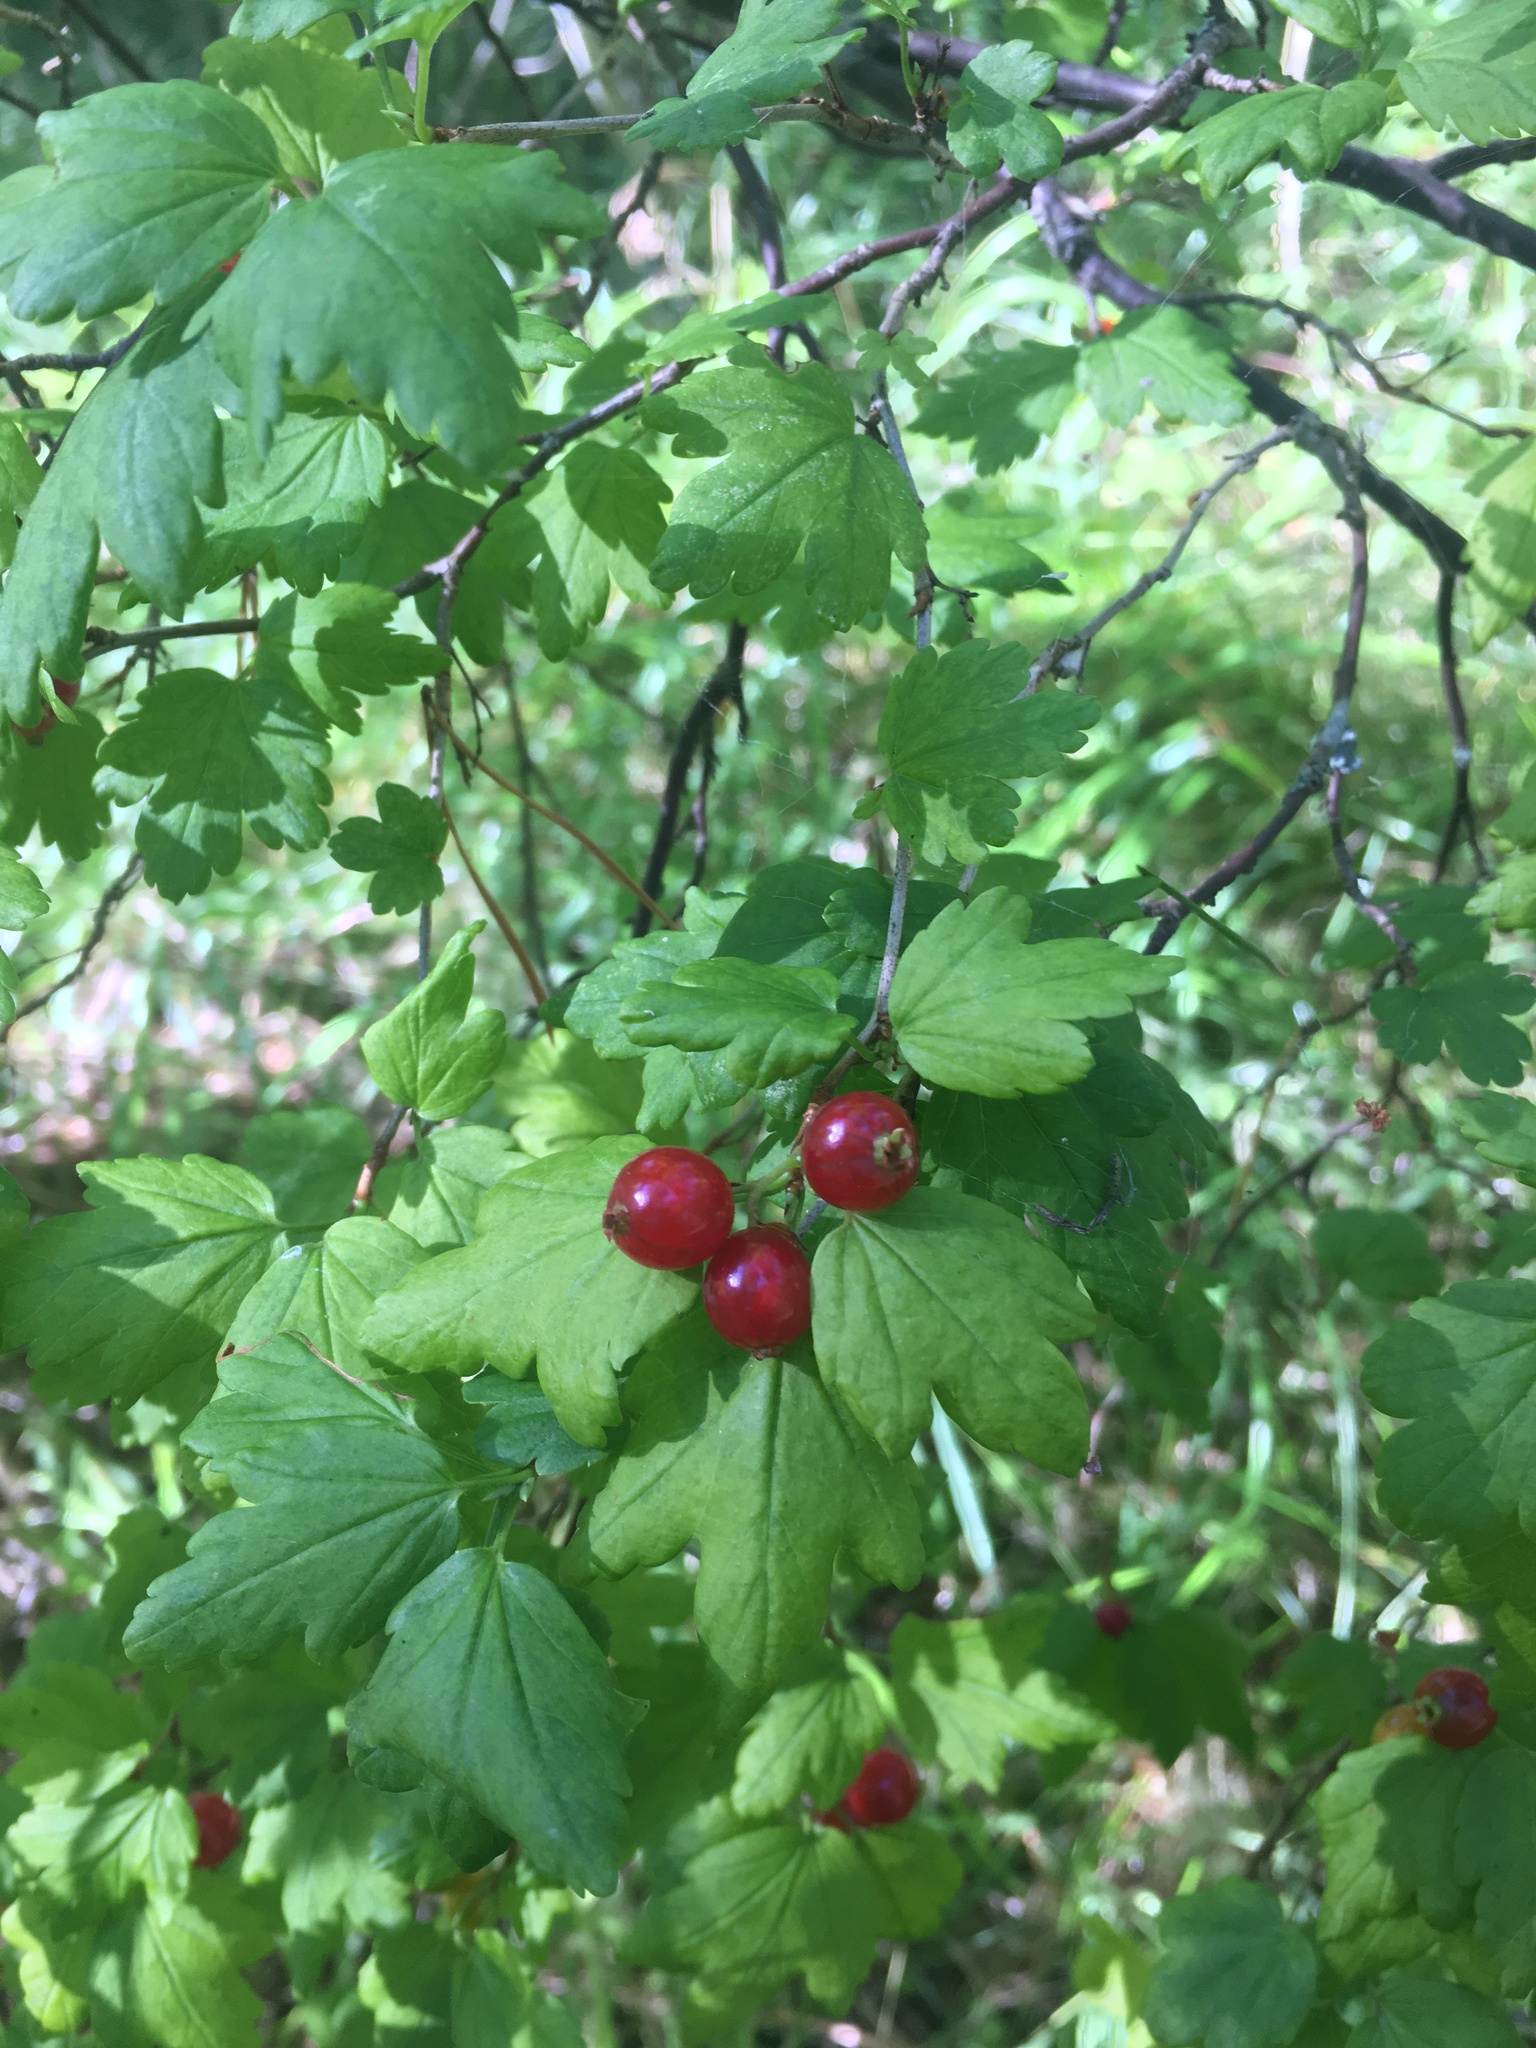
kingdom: Plantae
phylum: Tracheophyta
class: Magnoliopsida
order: Saxifragales
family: Grossulariaceae
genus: Ribes
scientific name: Ribes alpinum
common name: Alpine currant
